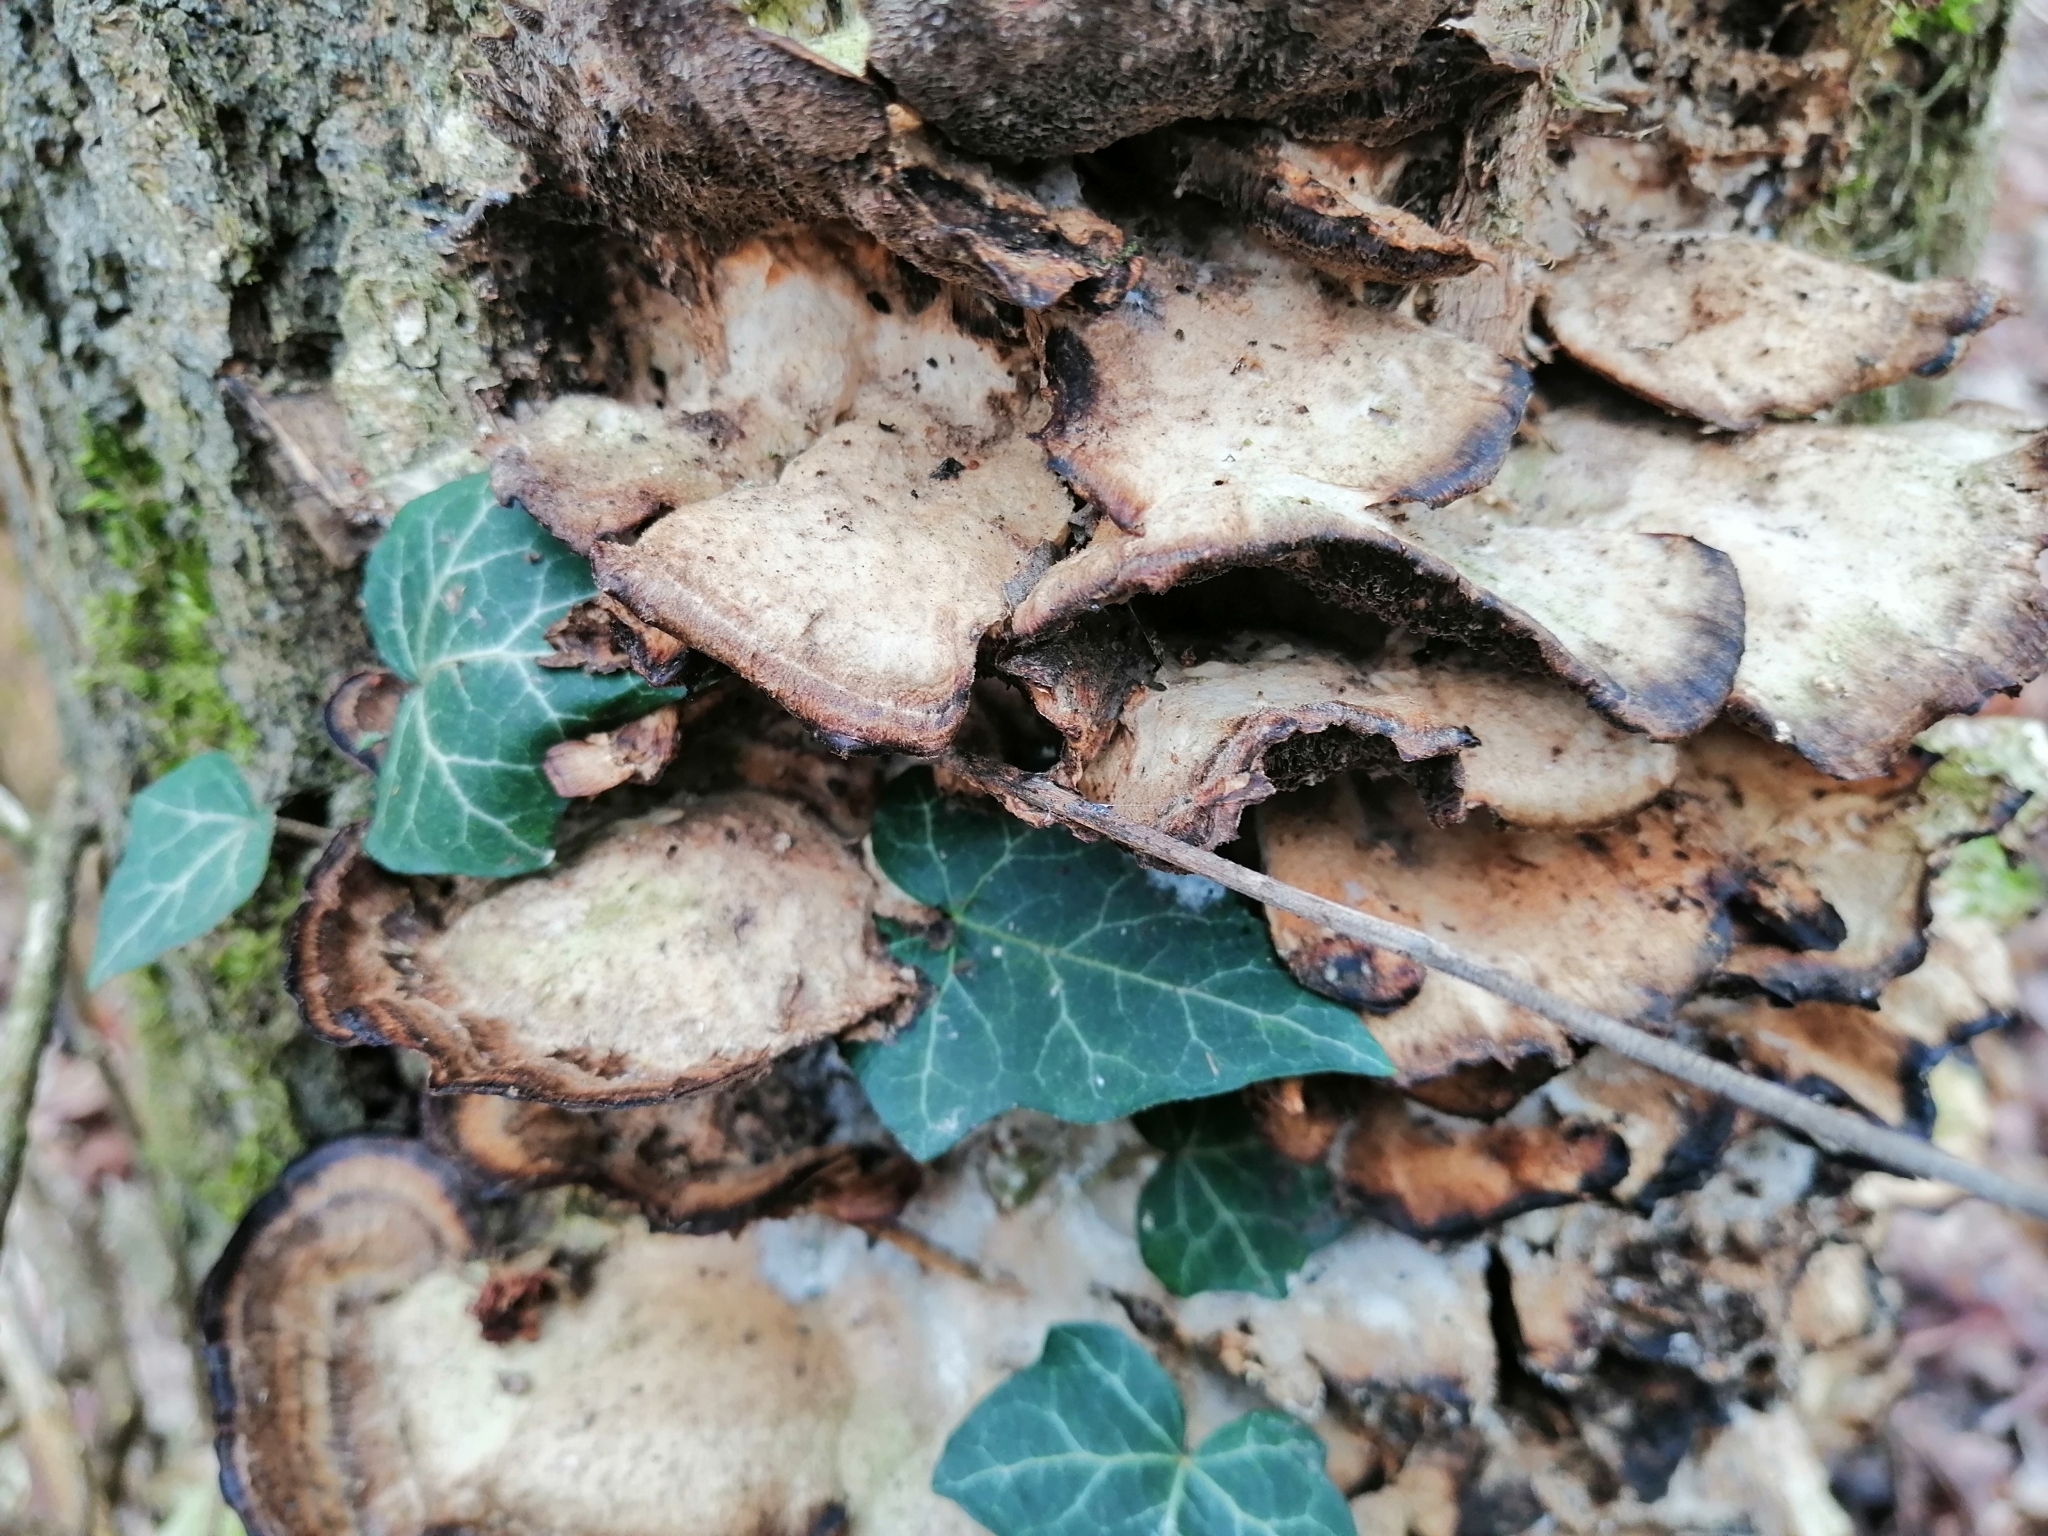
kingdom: Fungi
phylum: Basidiomycota
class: Agaricomycetes
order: Polyporales
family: Phanerochaetaceae
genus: Bjerkandera
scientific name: Bjerkandera adusta
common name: Smoky bracket
